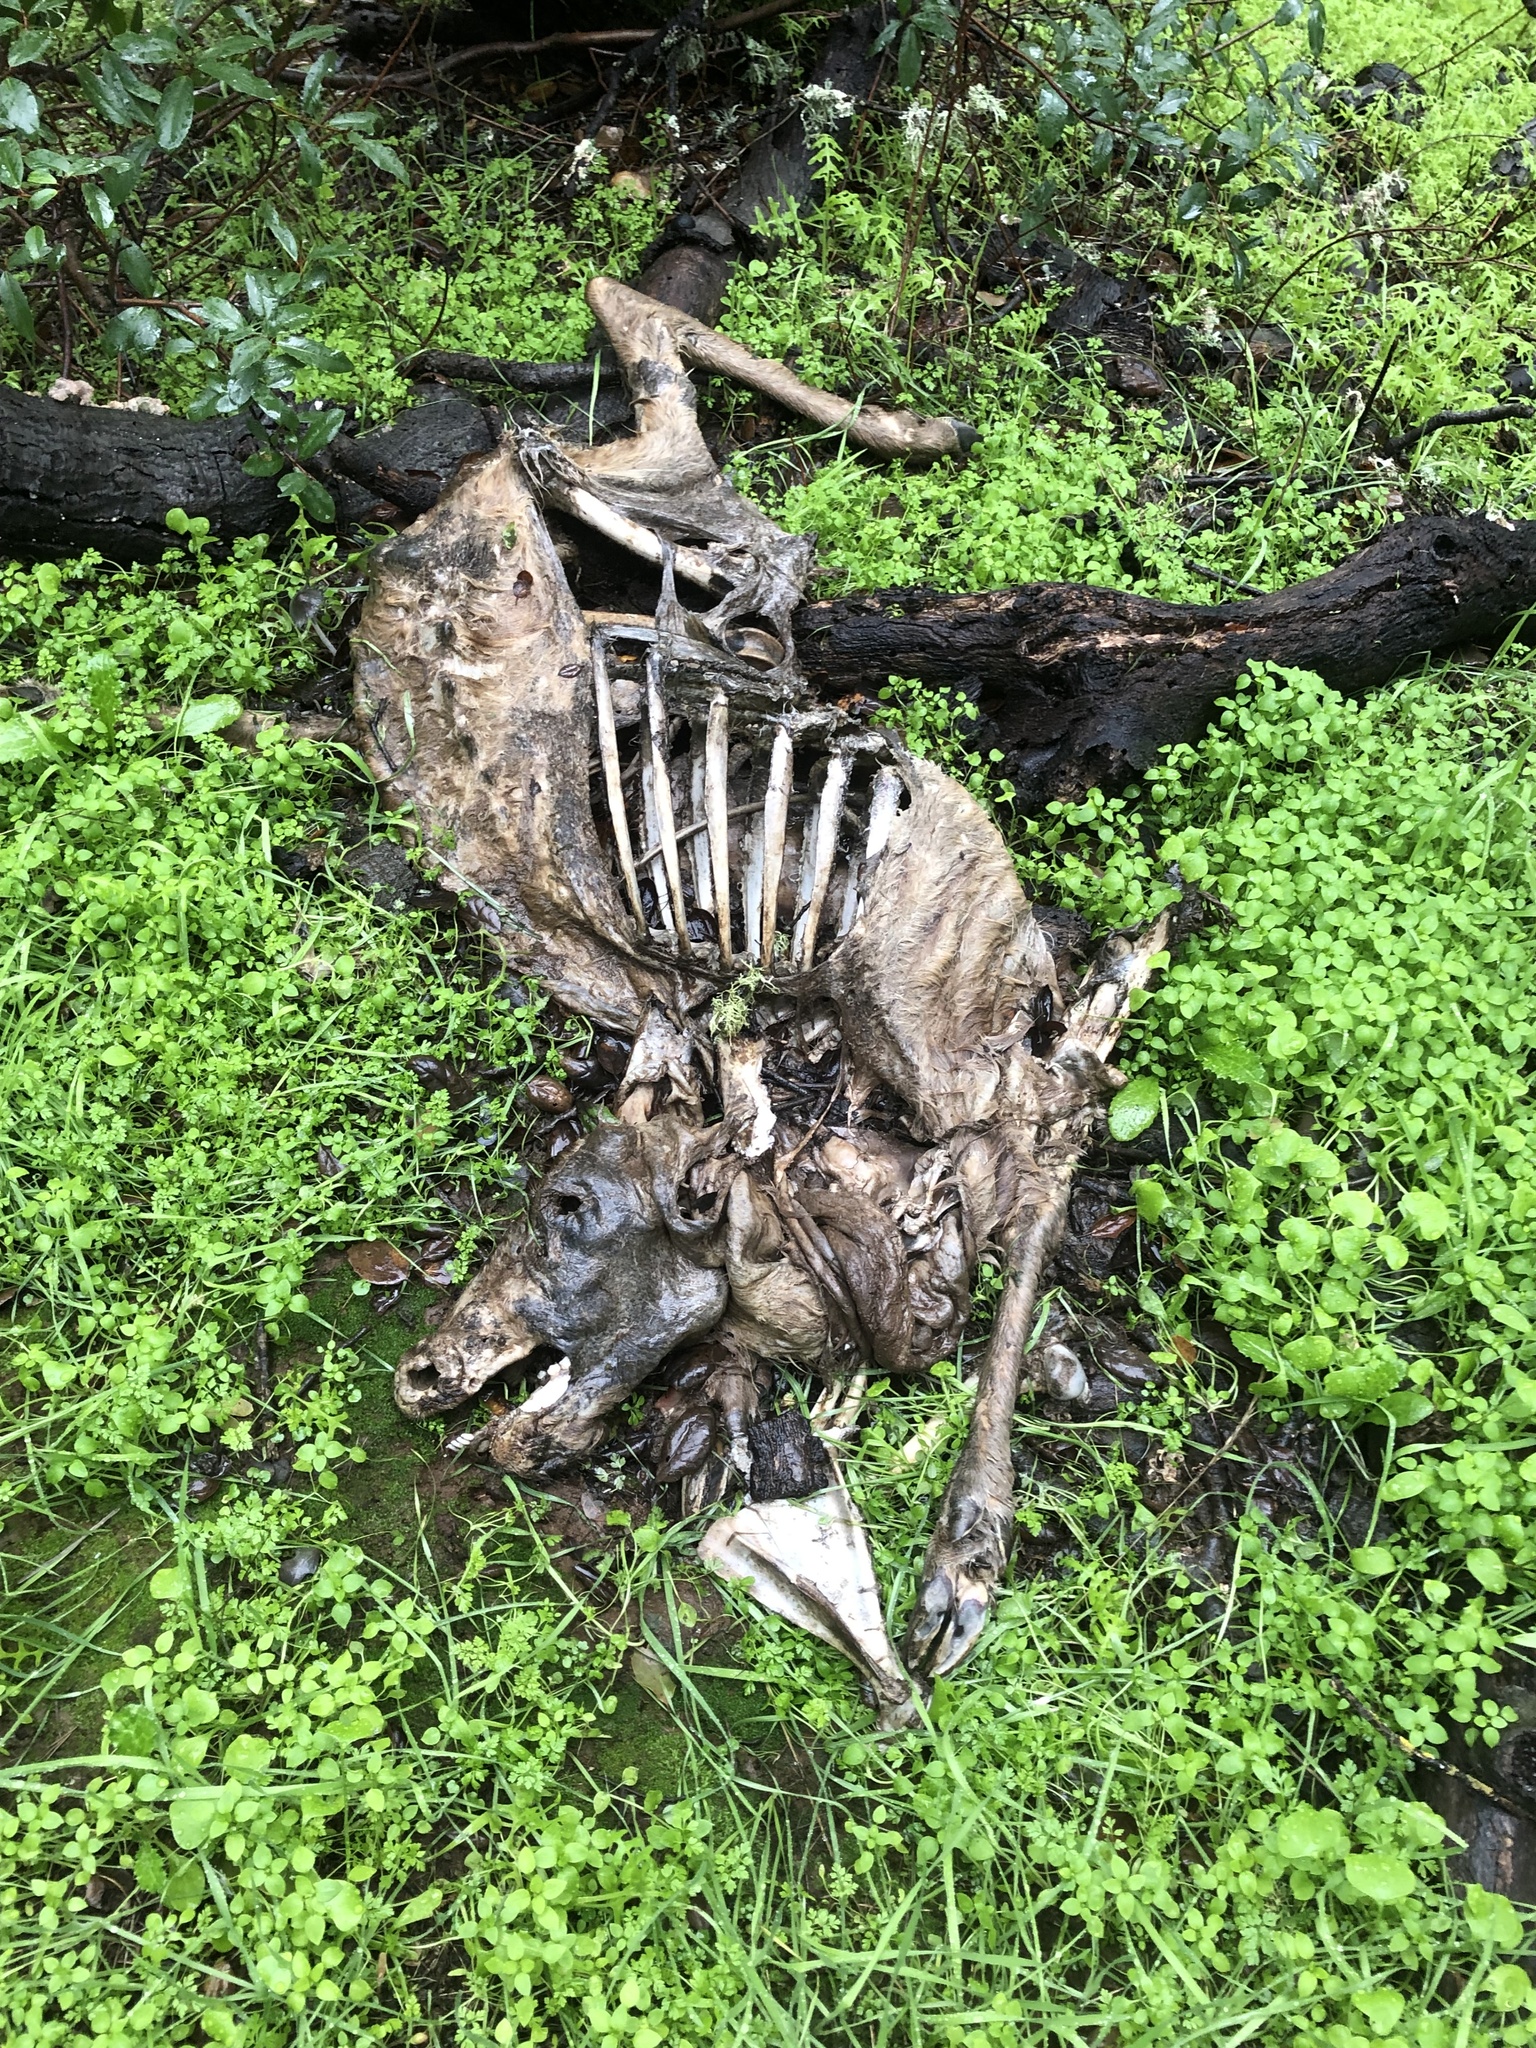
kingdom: Animalia
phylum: Chordata
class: Mammalia
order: Artiodactyla
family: Cervidae
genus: Odocoileus
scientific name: Odocoileus hemionus
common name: Mule deer
